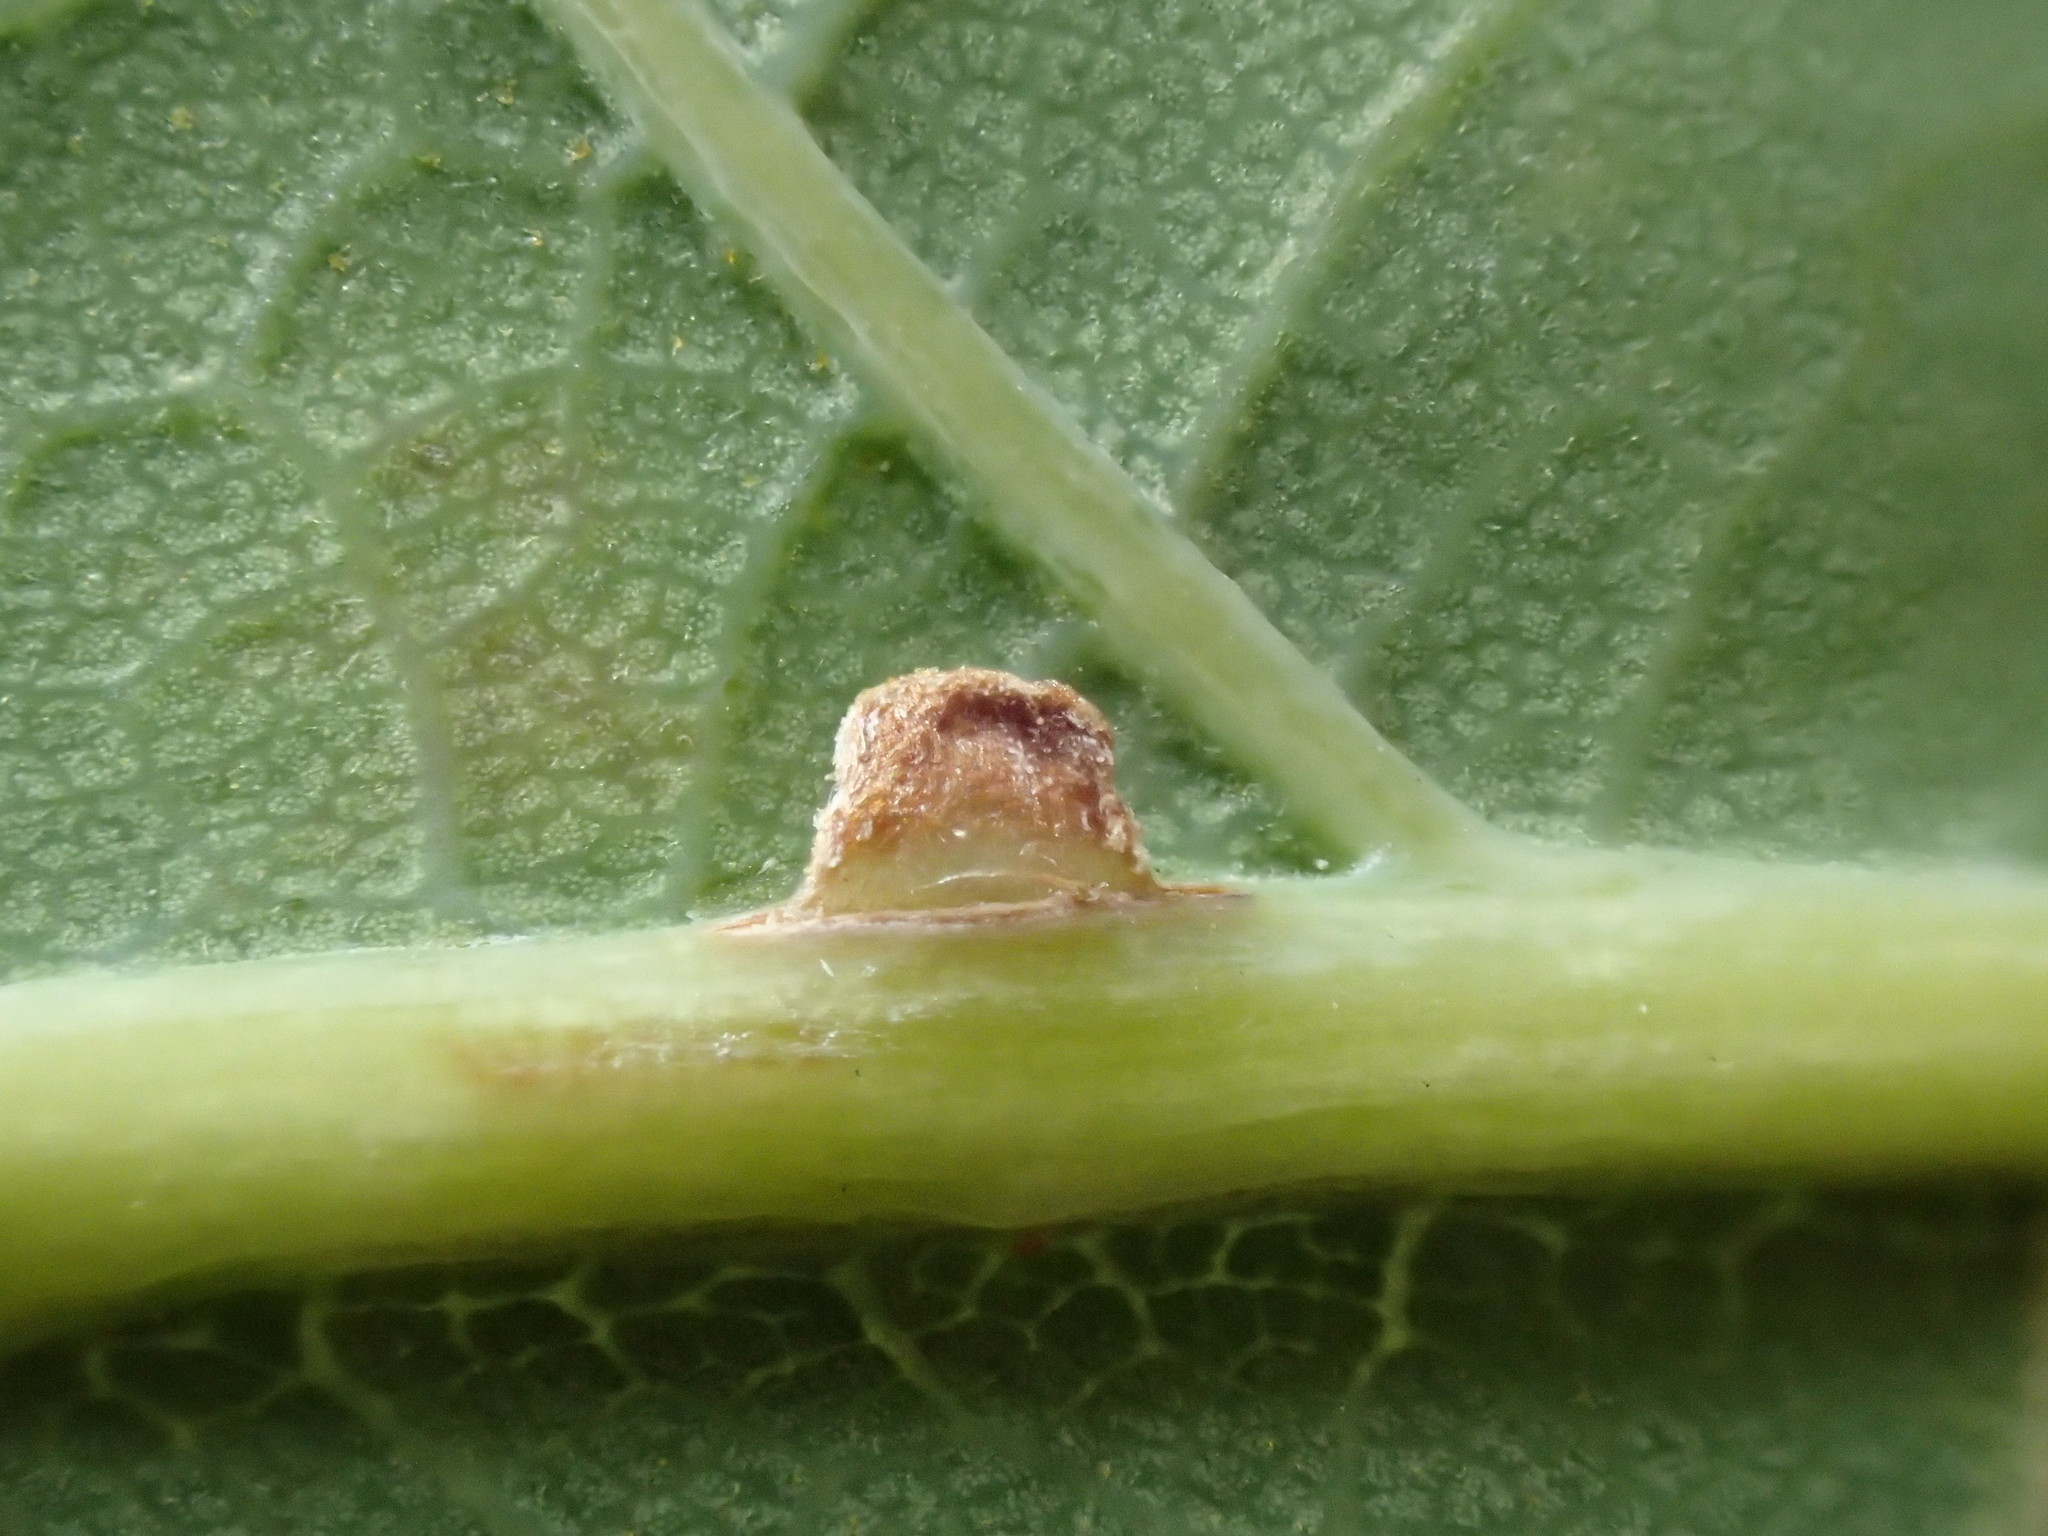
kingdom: Animalia
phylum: Arthropoda
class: Insecta
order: Hymenoptera
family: Cynipidae
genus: Neuroterus
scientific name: Neuroterus anthracinus
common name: Oyster gall
